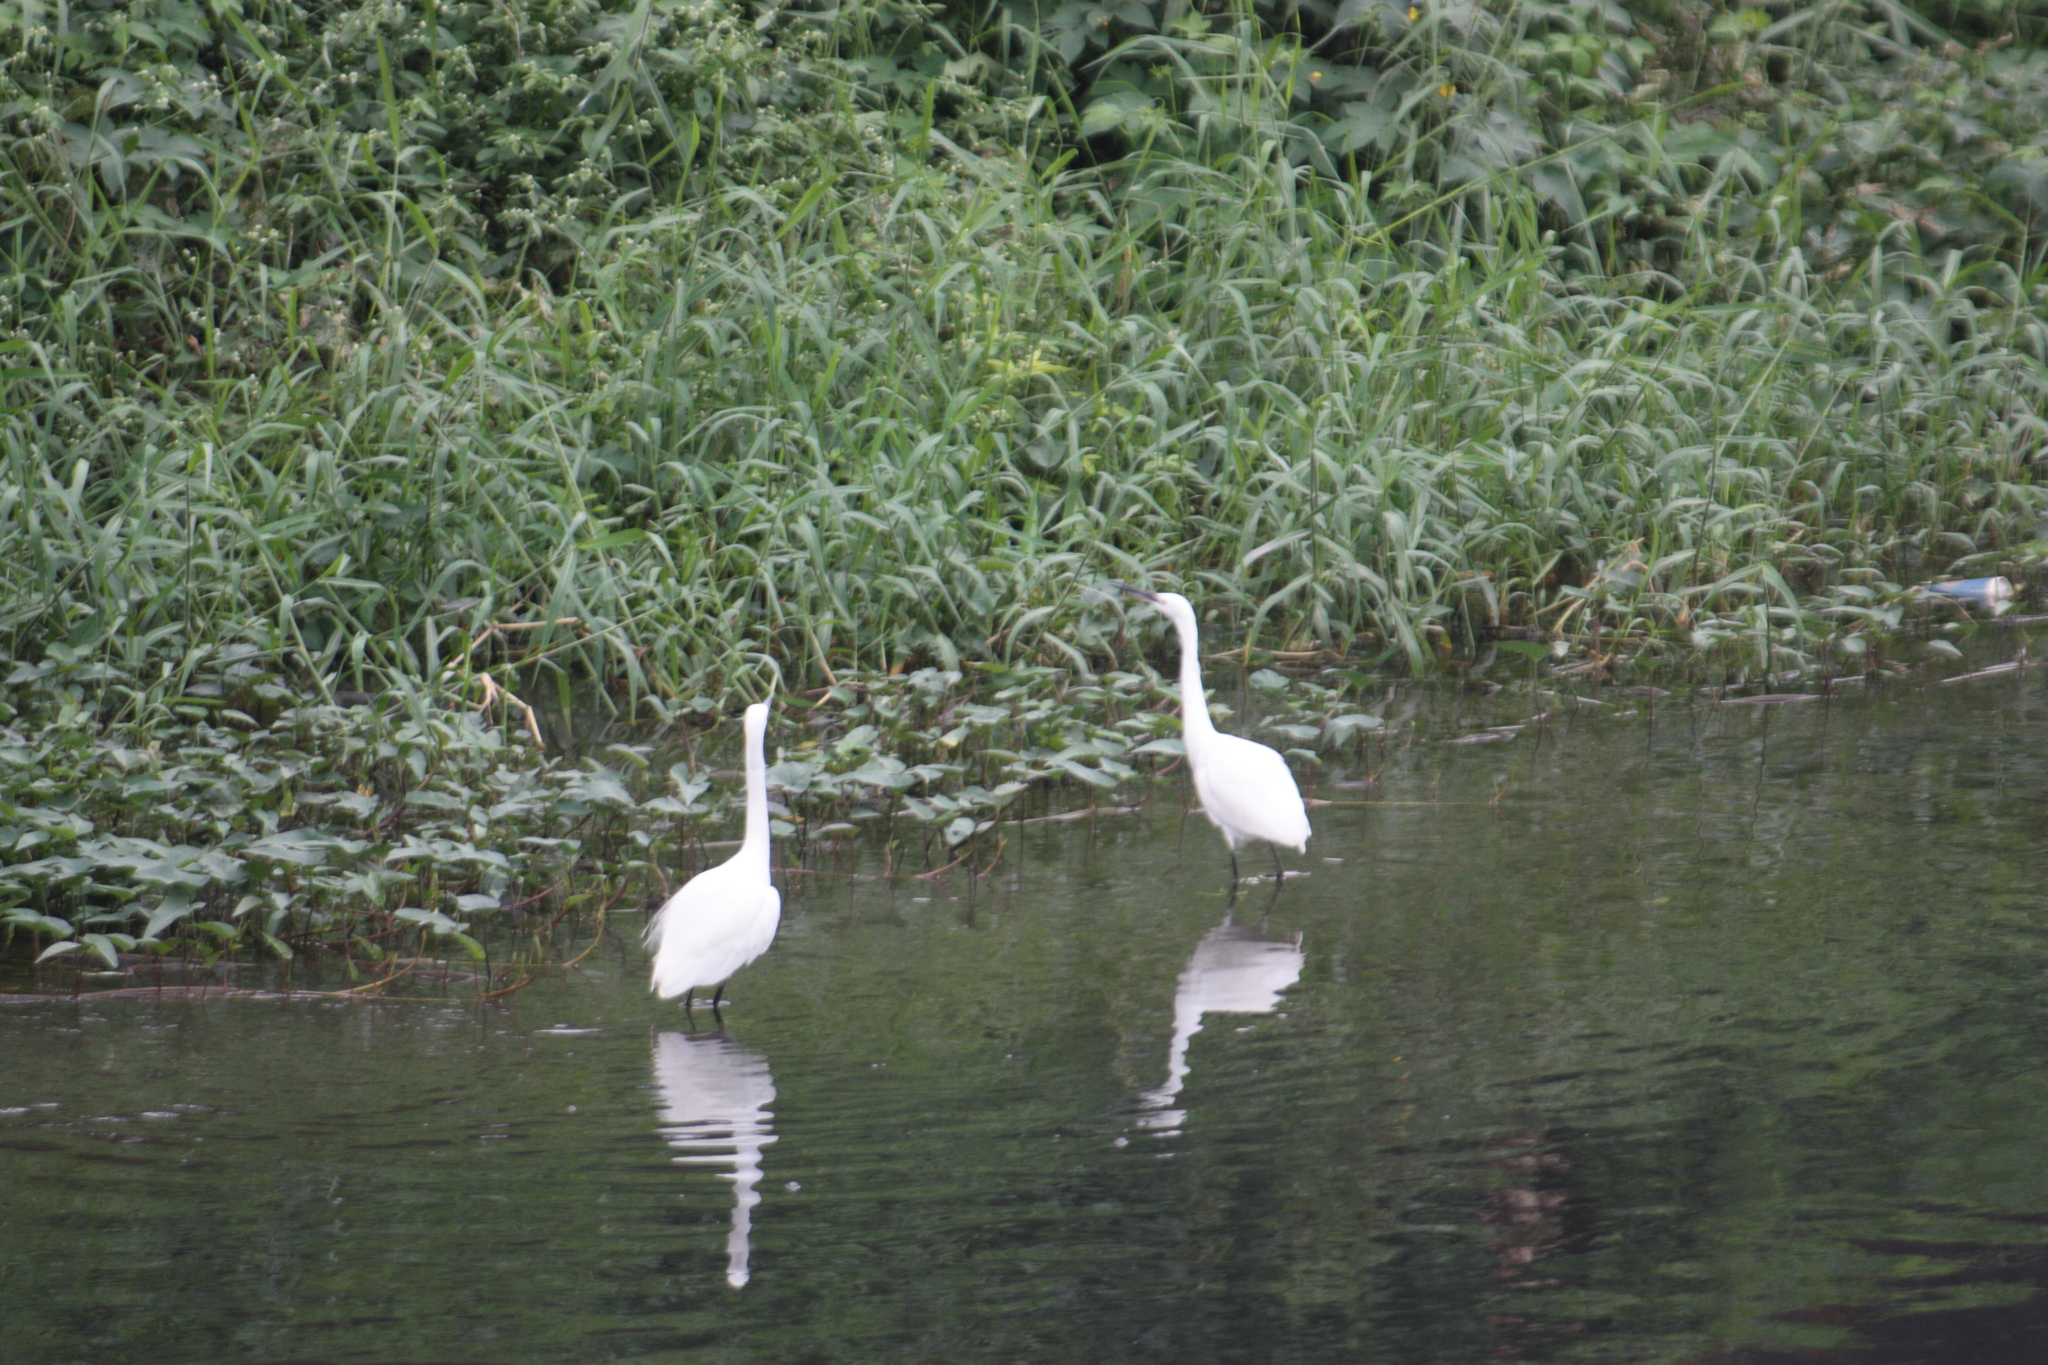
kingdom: Animalia
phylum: Chordata
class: Aves
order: Pelecaniformes
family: Ardeidae
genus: Egretta
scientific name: Egretta garzetta
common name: Little egret
